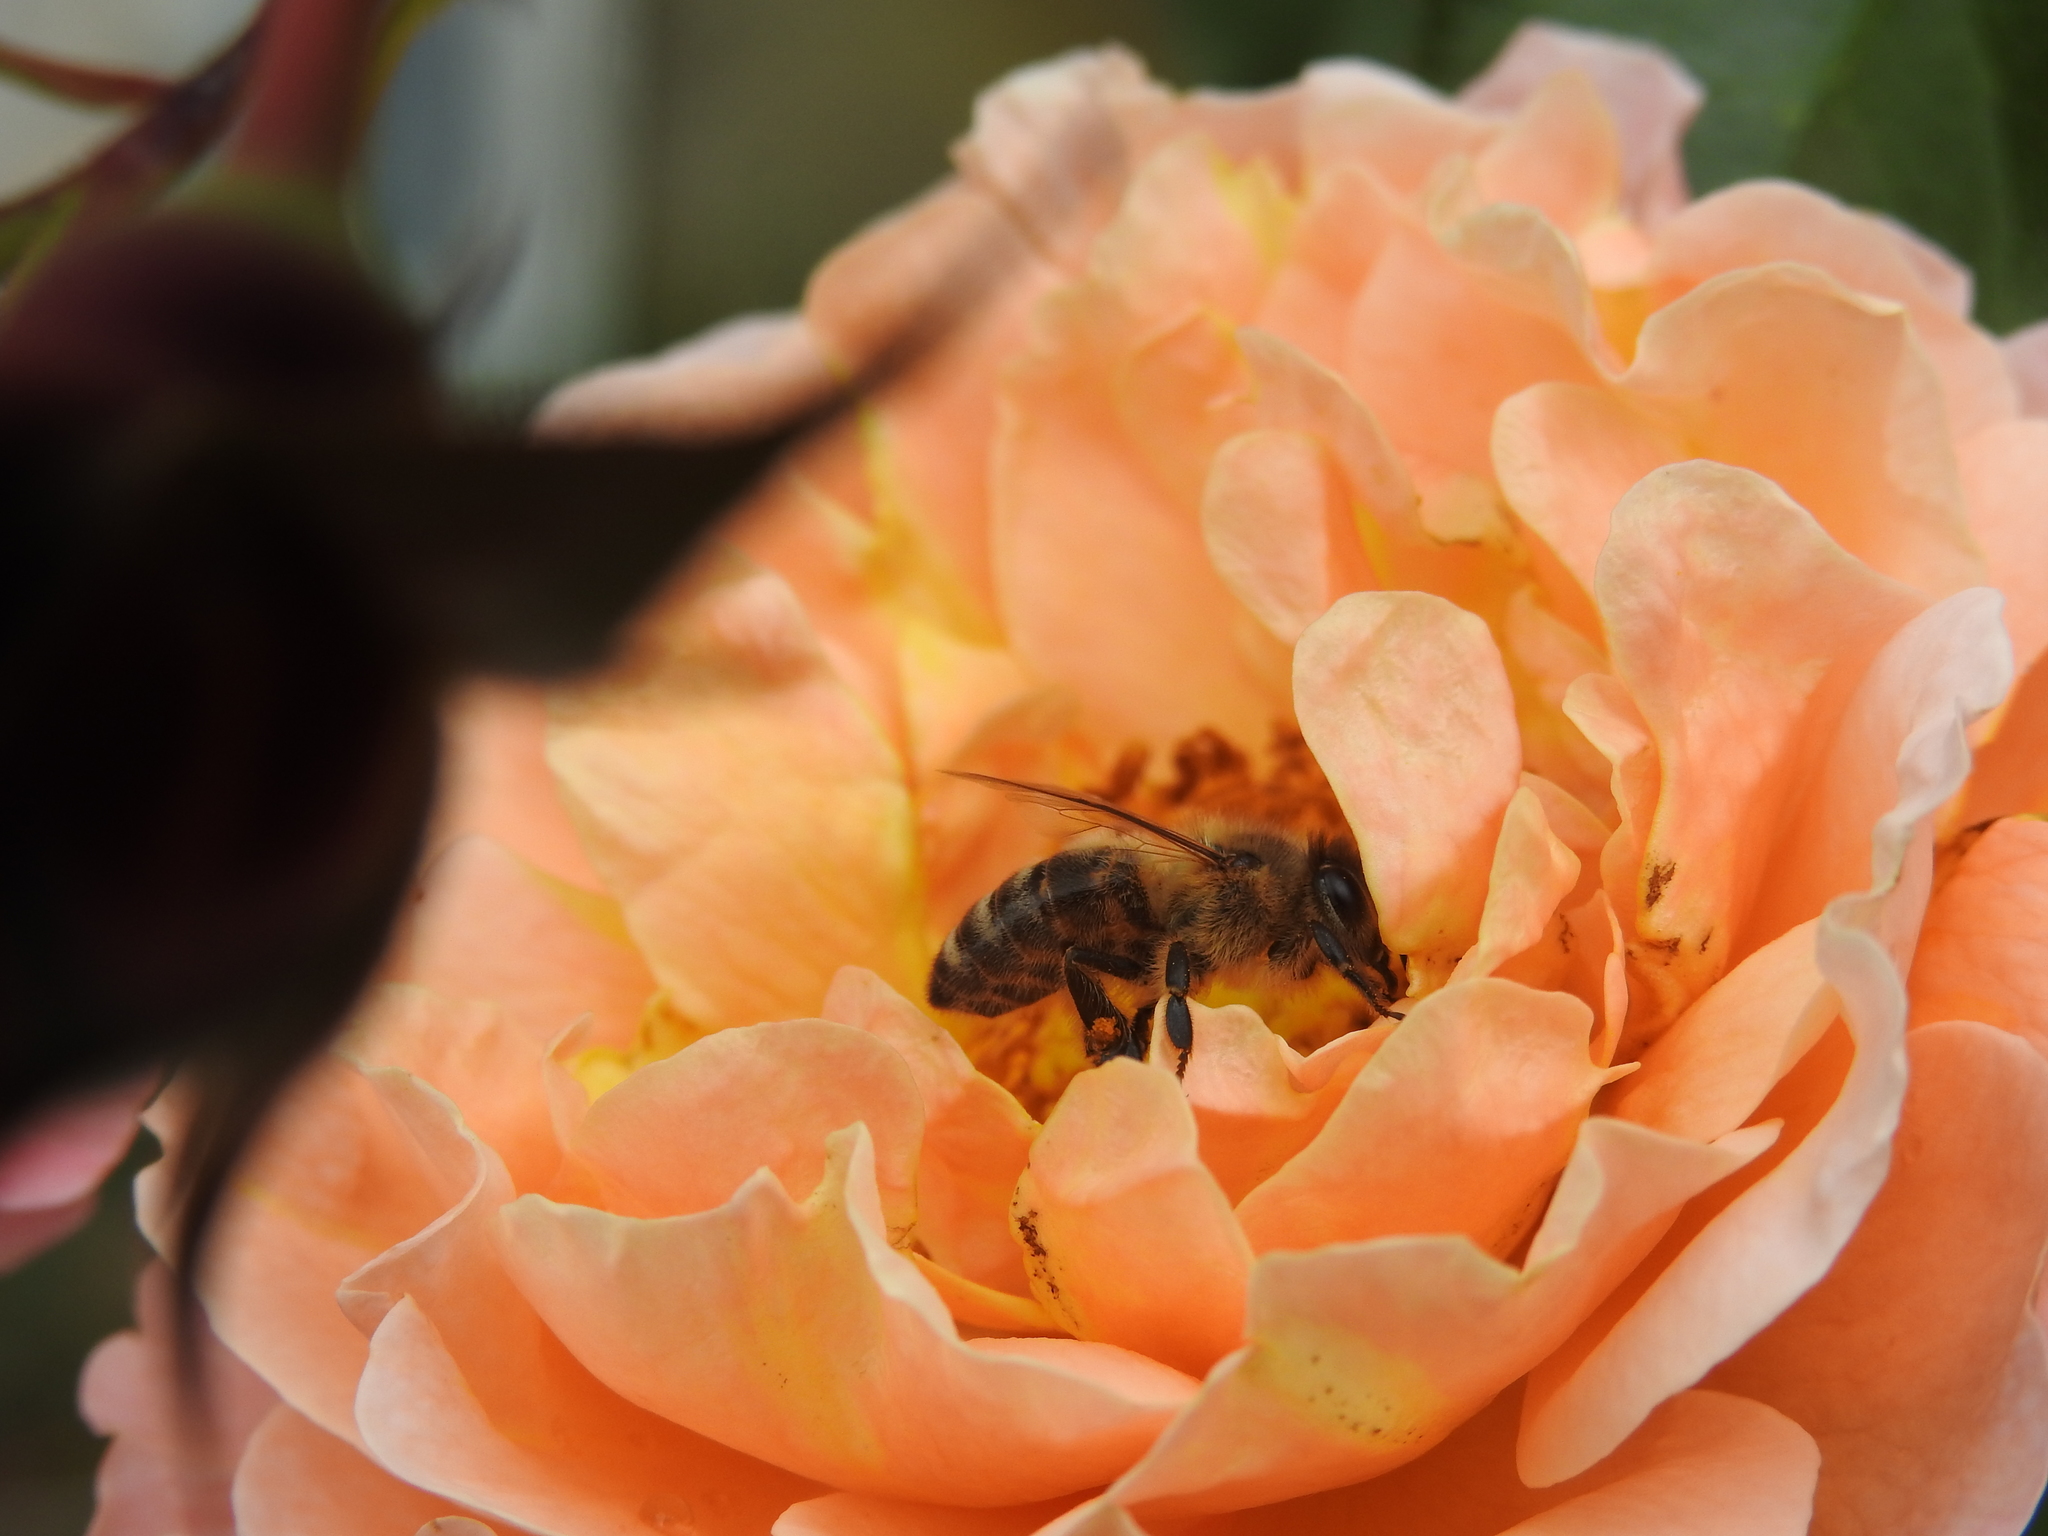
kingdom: Animalia
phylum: Arthropoda
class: Insecta
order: Hymenoptera
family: Apidae
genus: Apis
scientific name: Apis mellifera
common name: Honey bee
